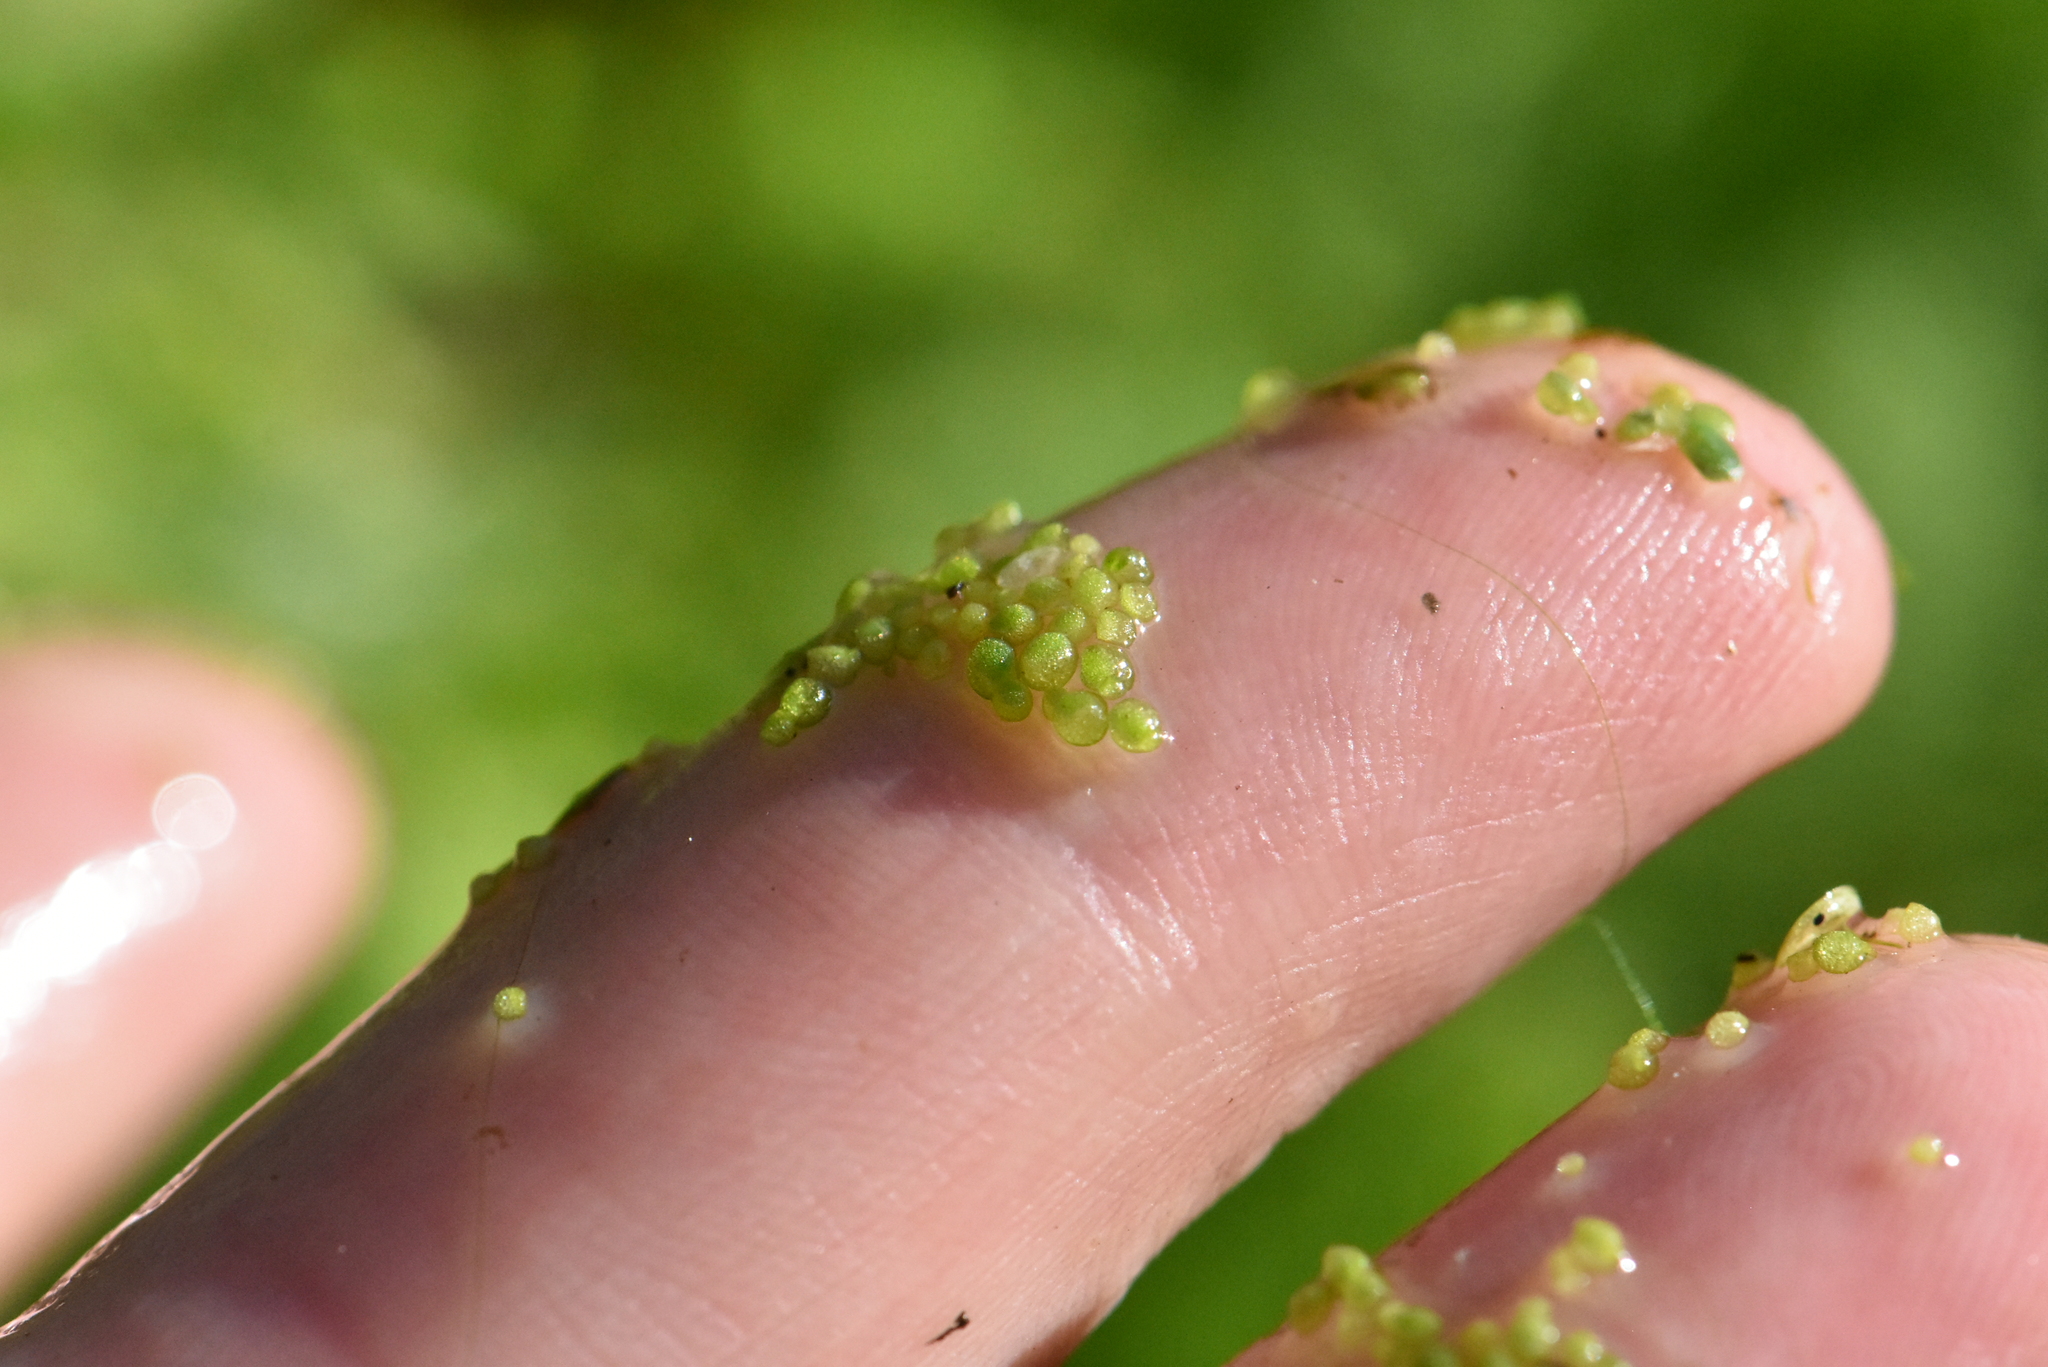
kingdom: Plantae
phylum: Tracheophyta
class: Liliopsida
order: Alismatales
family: Araceae
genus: Wolffia
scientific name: Wolffia arrhiza
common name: Rootless duckweed
